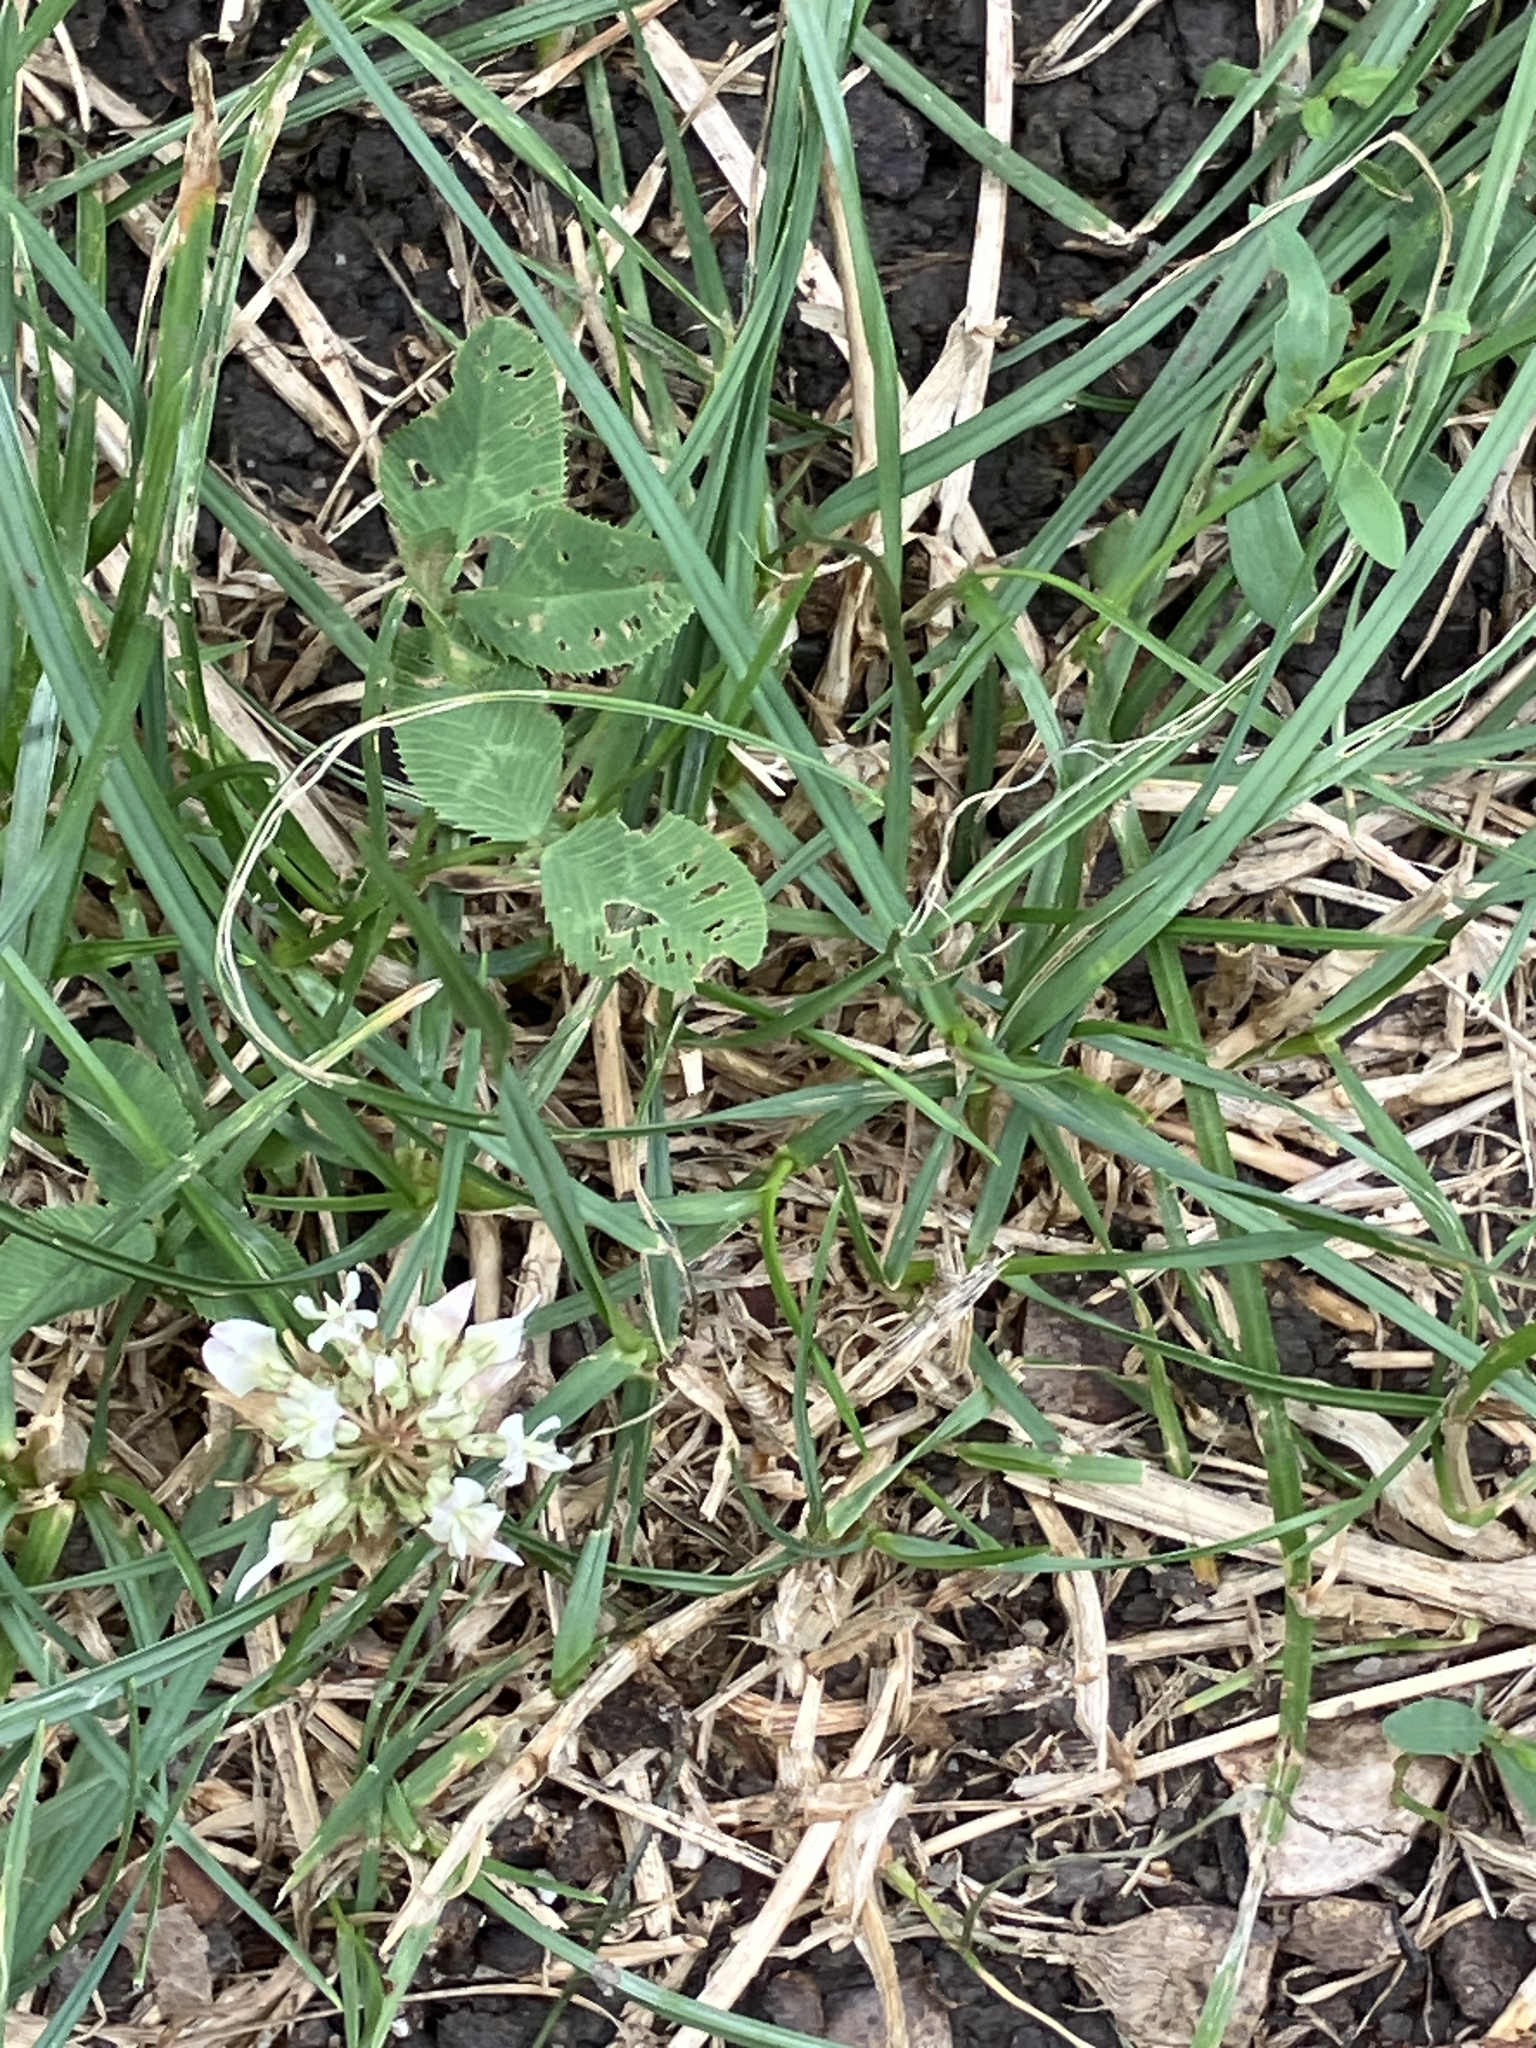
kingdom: Plantae
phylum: Tracheophyta
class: Magnoliopsida
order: Fabales
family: Fabaceae
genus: Trifolium
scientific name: Trifolium repens
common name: White clover
